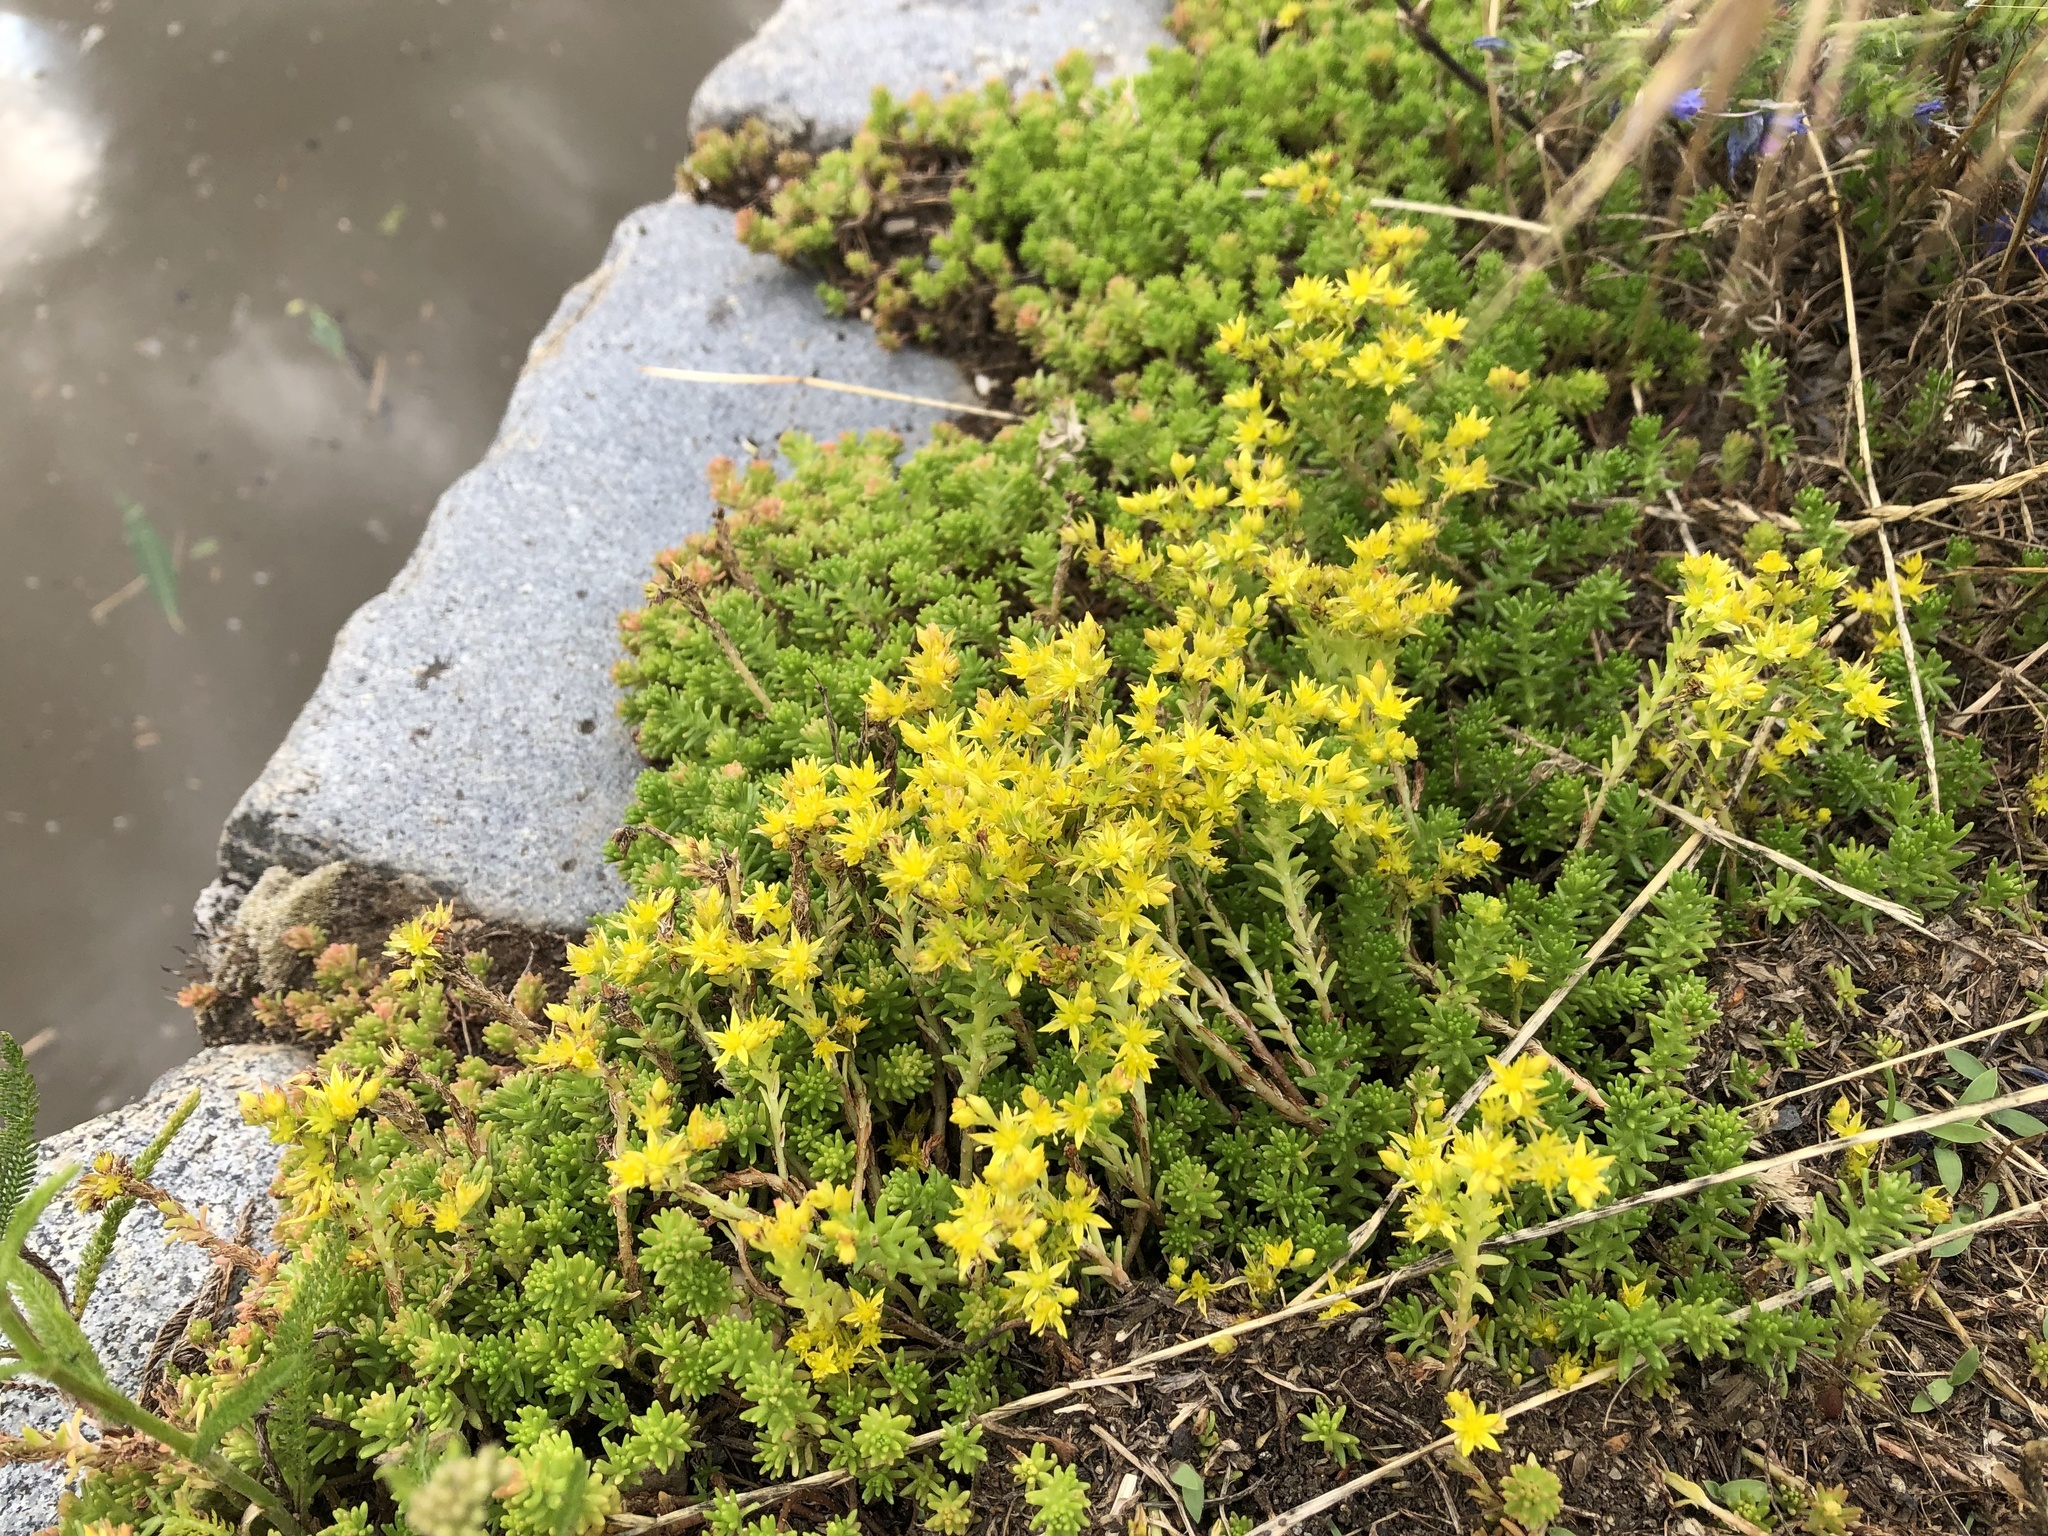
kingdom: Plantae
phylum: Tracheophyta
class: Magnoliopsida
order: Saxifragales
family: Crassulaceae
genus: Sedum
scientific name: Sedum sexangulare
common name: Tasteless stonecrop
